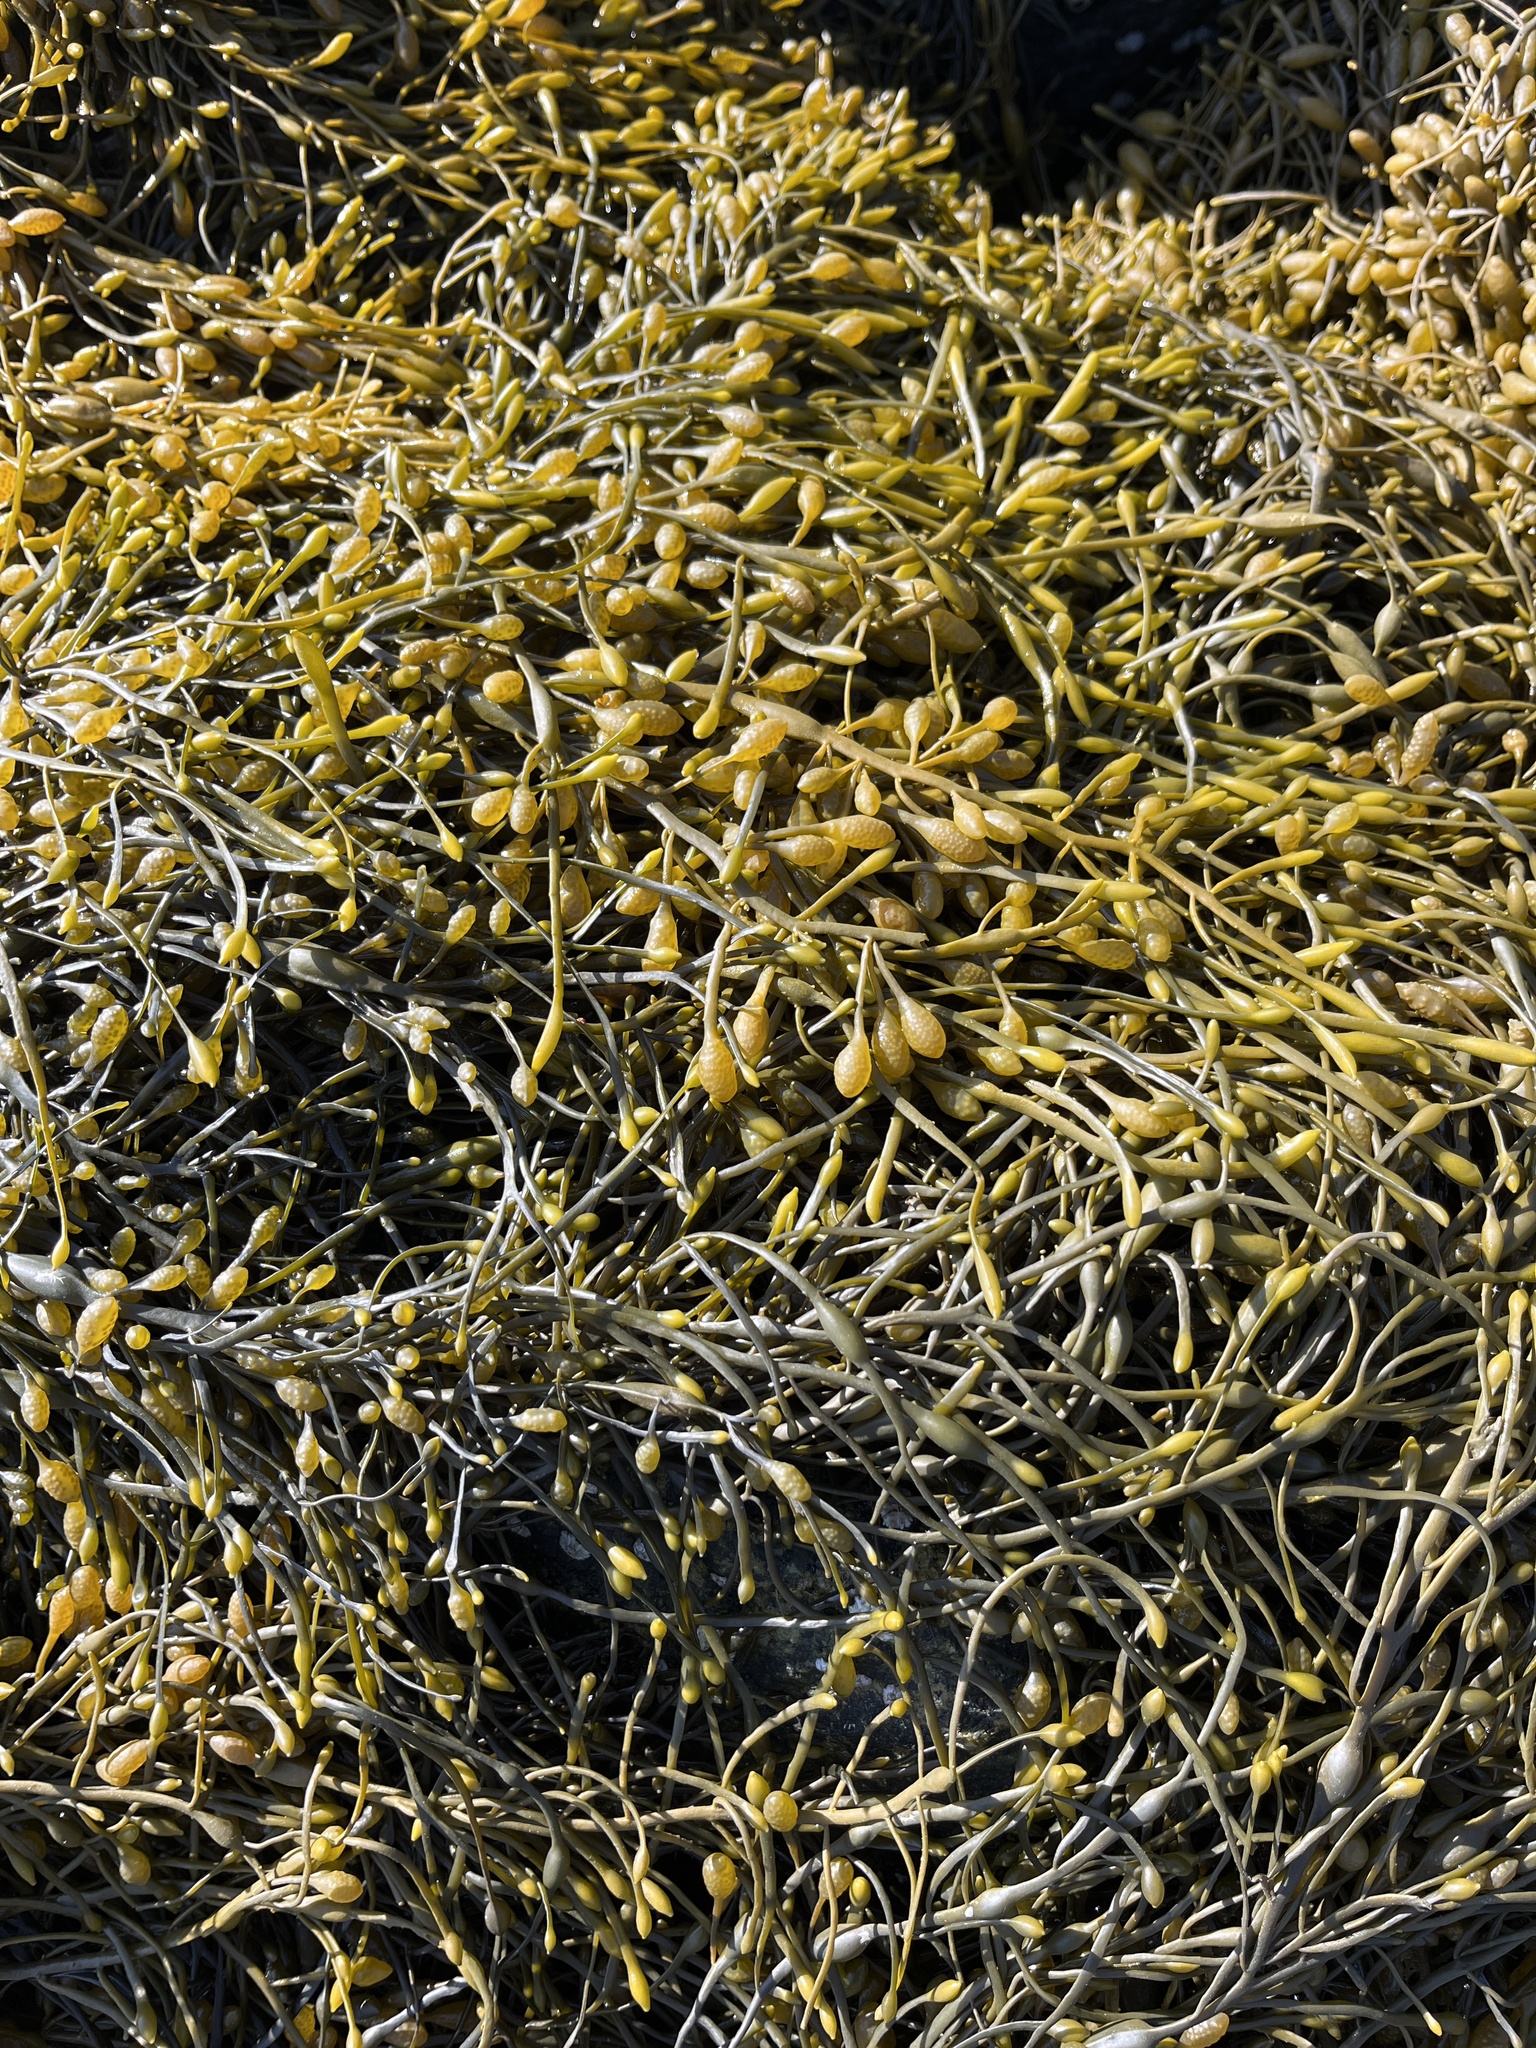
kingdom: Chromista
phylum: Ochrophyta
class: Phaeophyceae
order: Fucales
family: Fucaceae
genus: Ascophyllum
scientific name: Ascophyllum nodosum
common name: Knotted wrack
